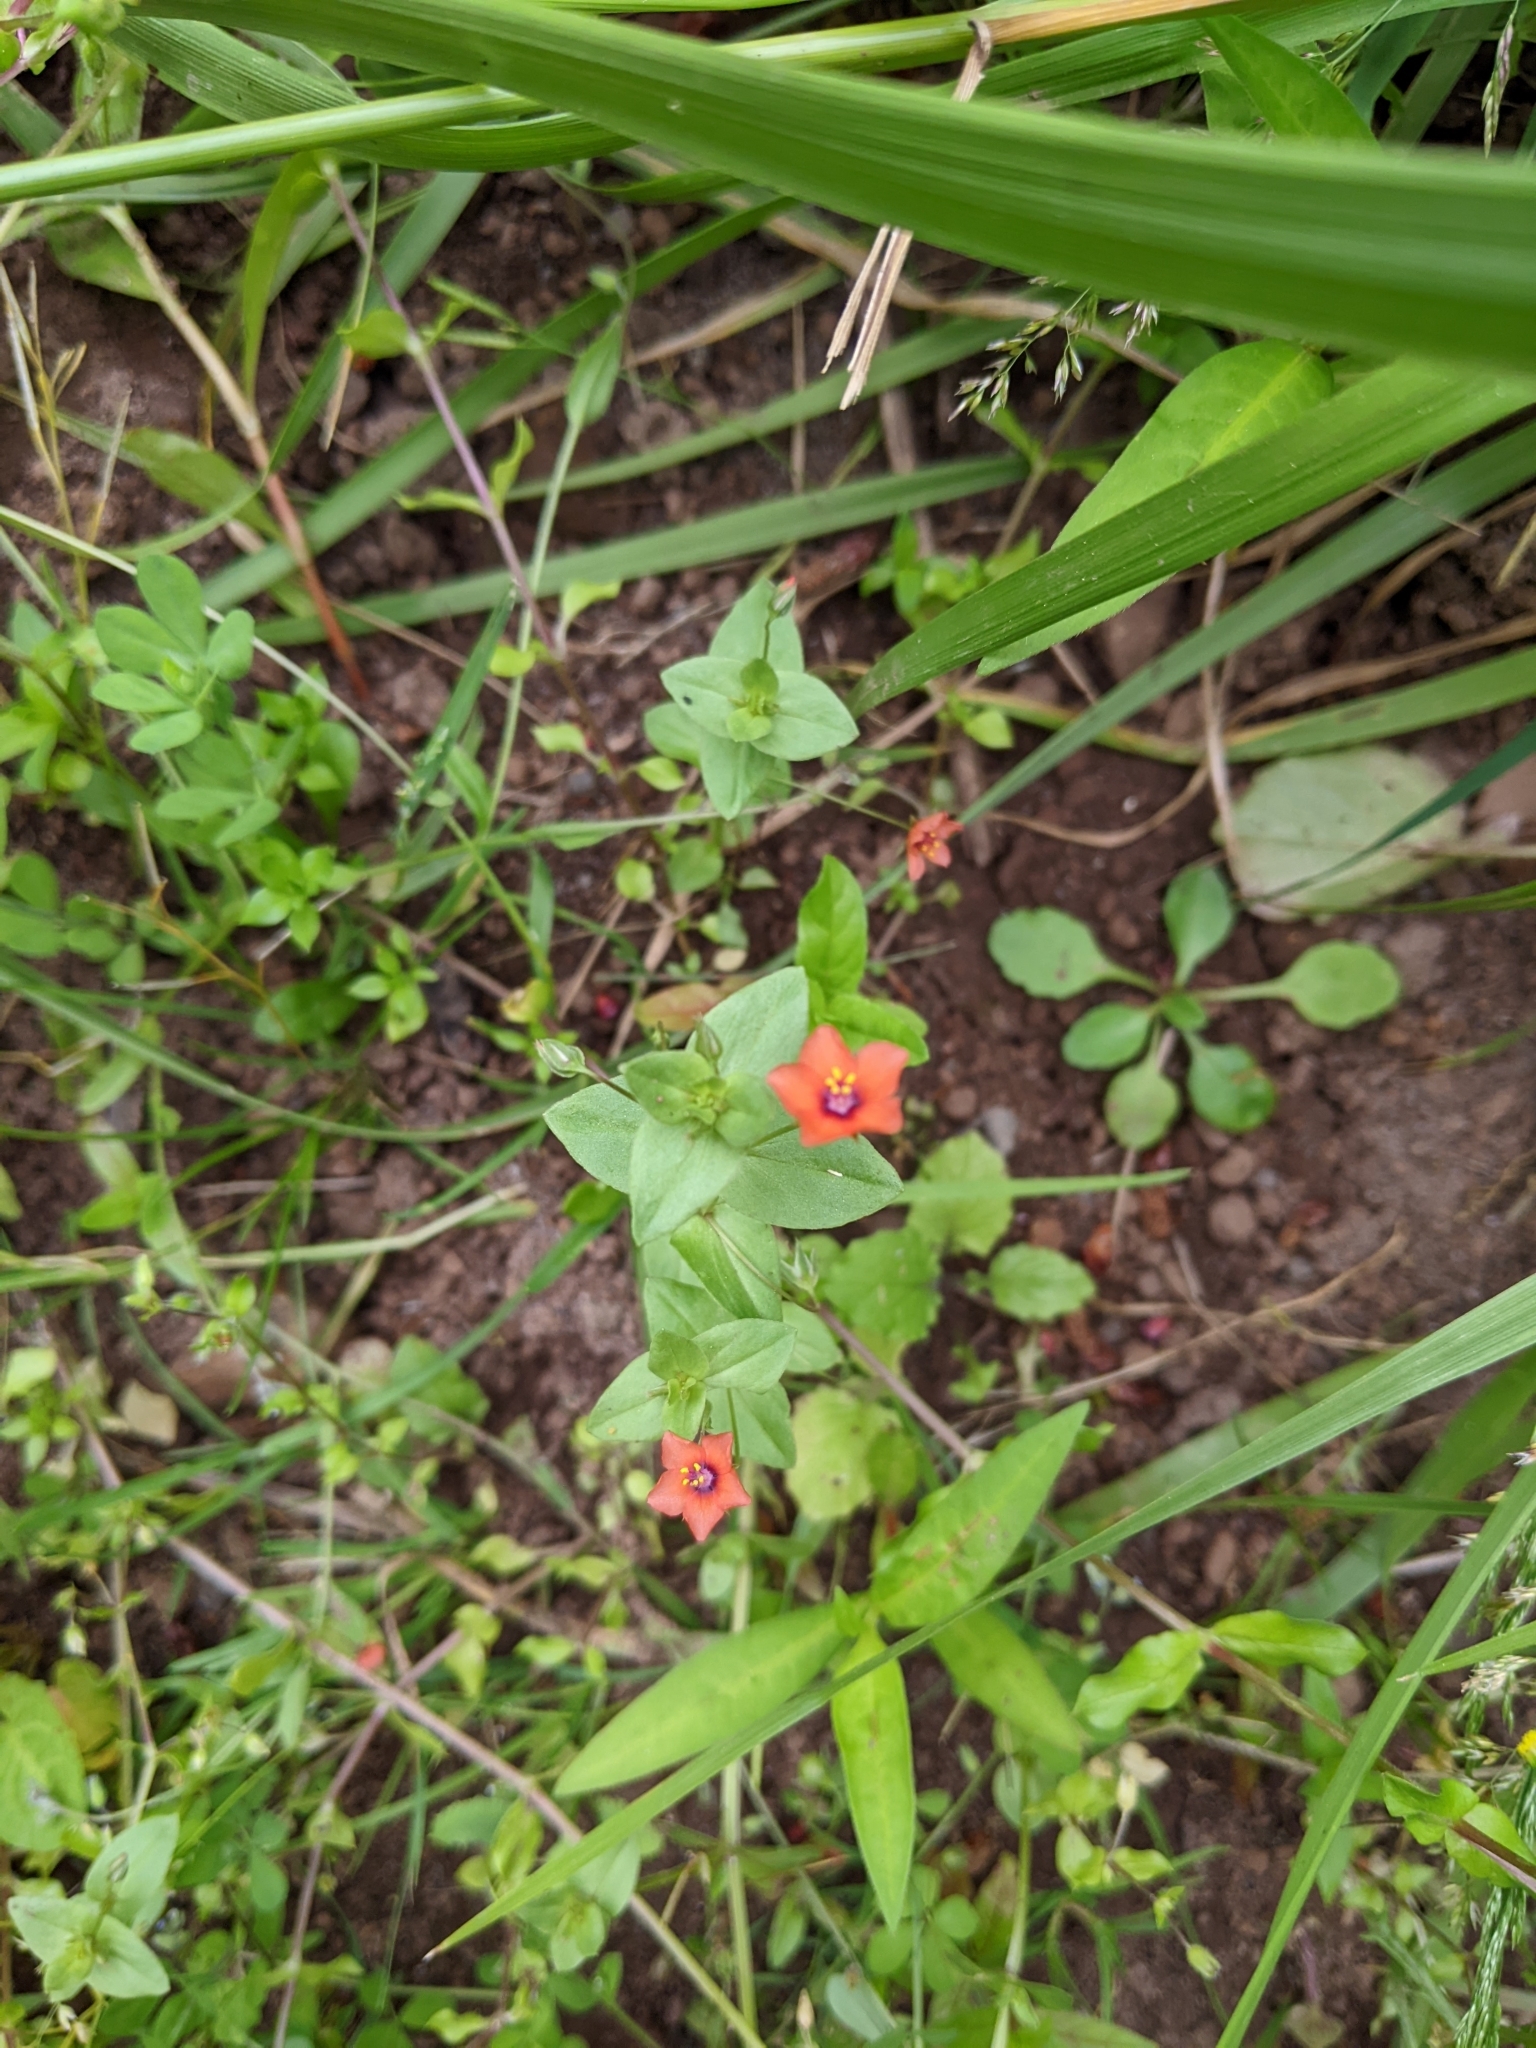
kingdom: Plantae
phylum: Tracheophyta
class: Magnoliopsida
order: Ericales
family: Primulaceae
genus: Lysimachia
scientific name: Lysimachia arvensis
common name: Scarlet pimpernel
